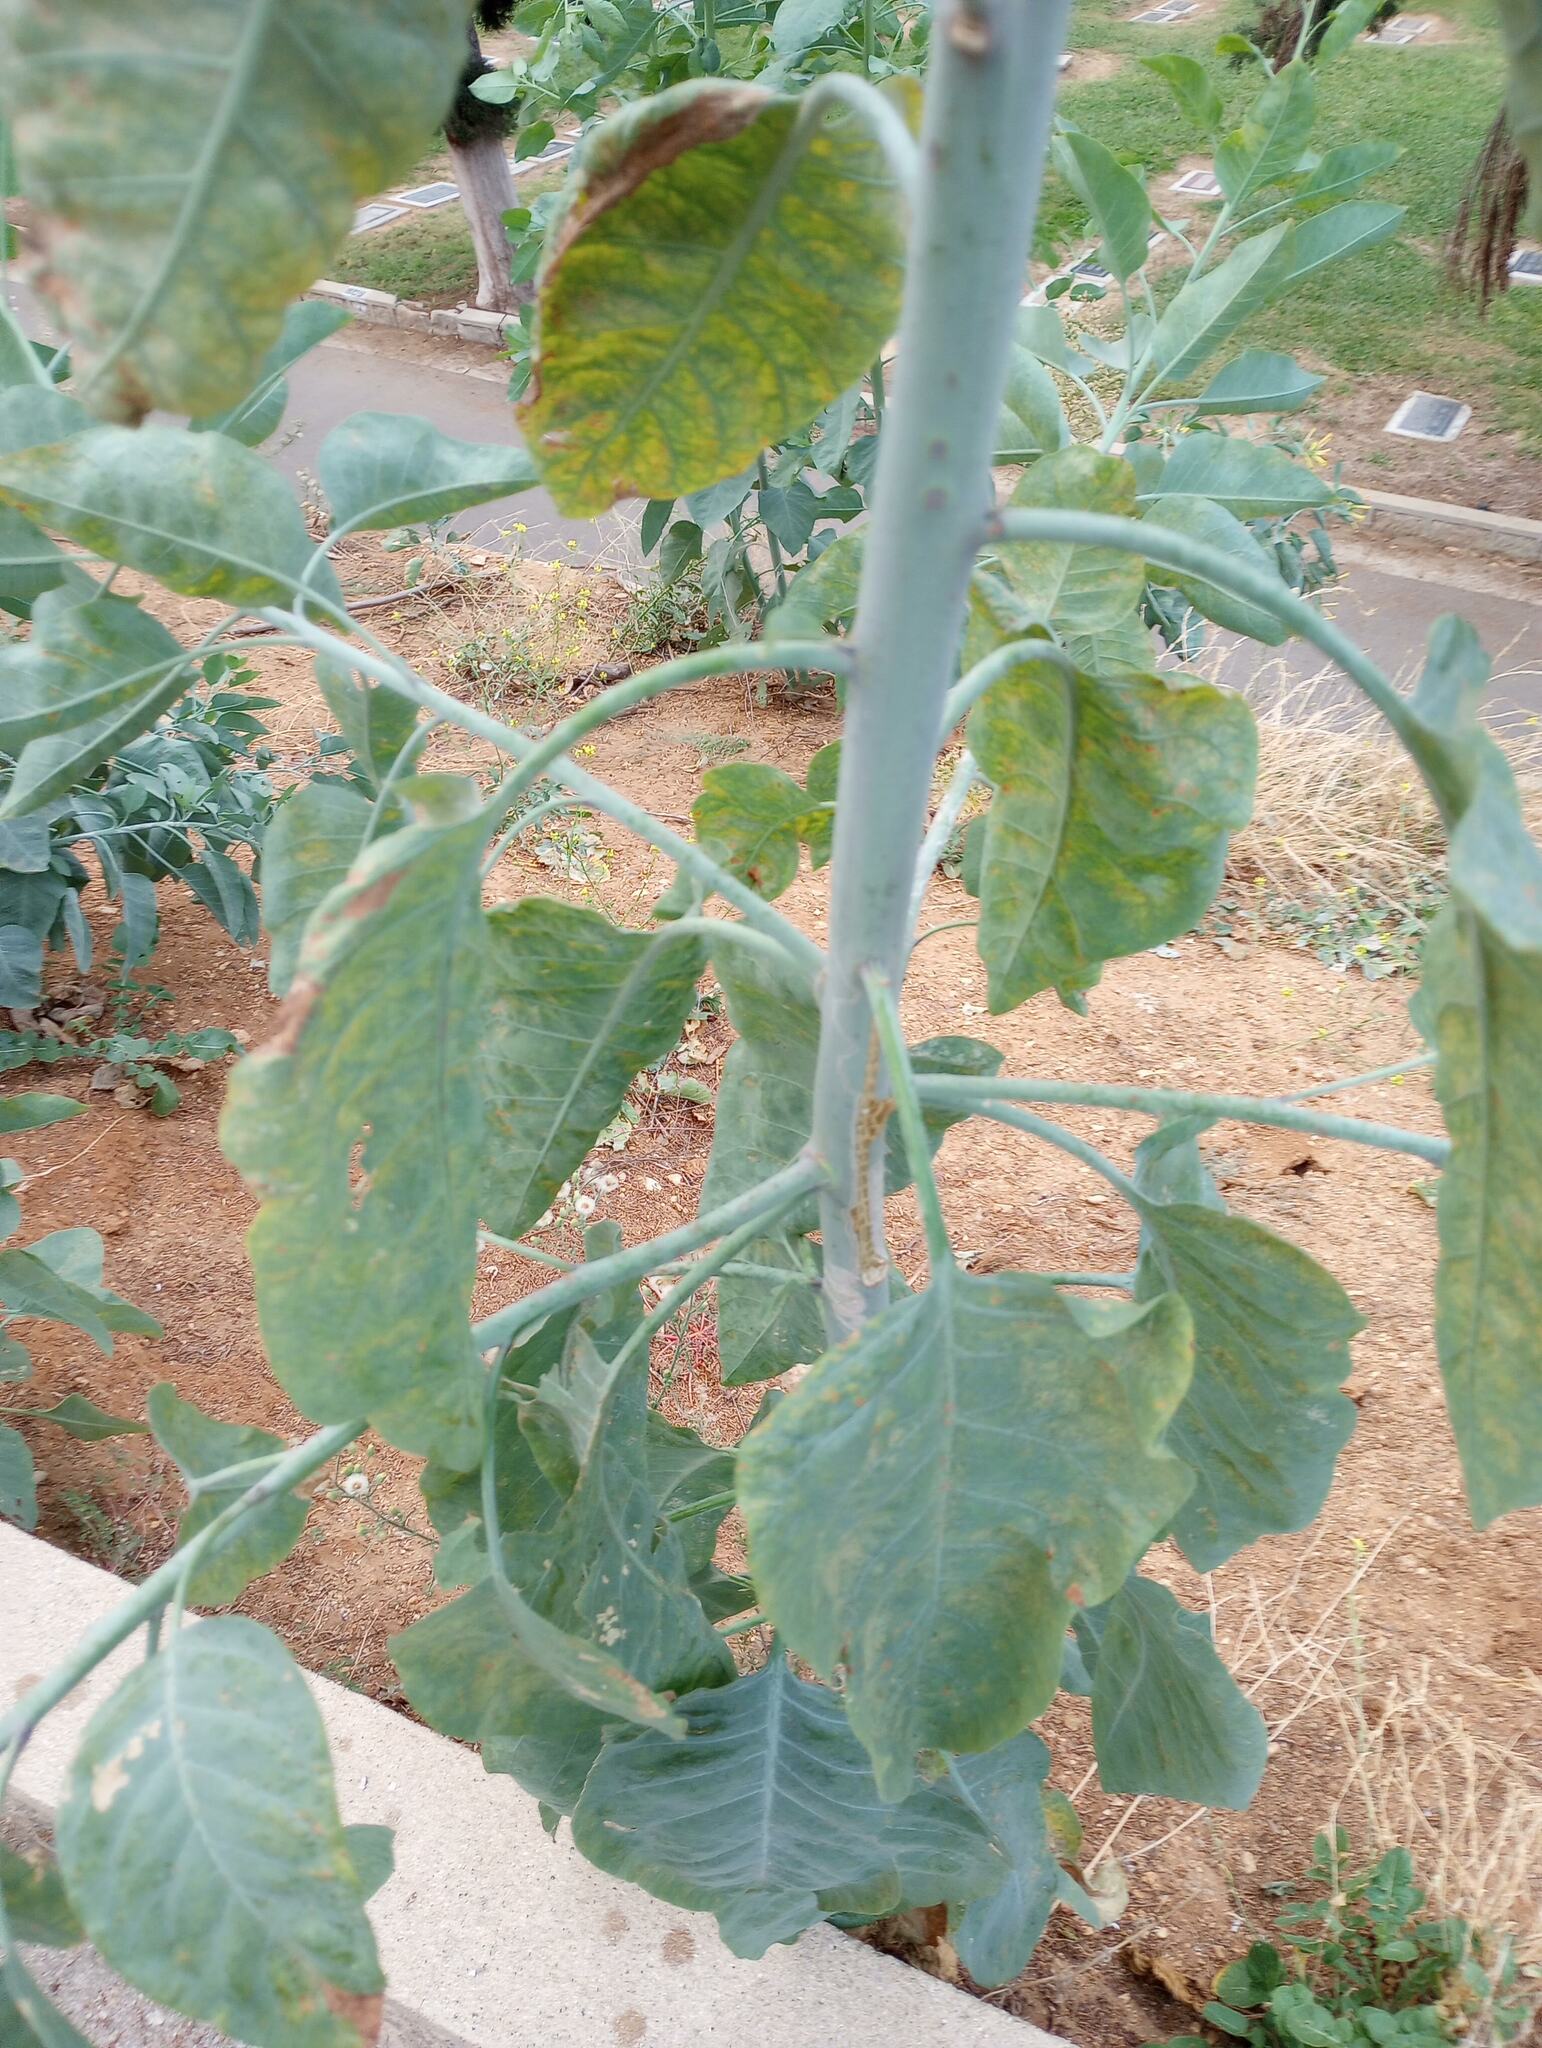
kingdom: Plantae
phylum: Tracheophyta
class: Magnoliopsida
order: Solanales
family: Solanaceae
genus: Nicotiana
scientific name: Nicotiana glauca
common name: Tree tobacco
